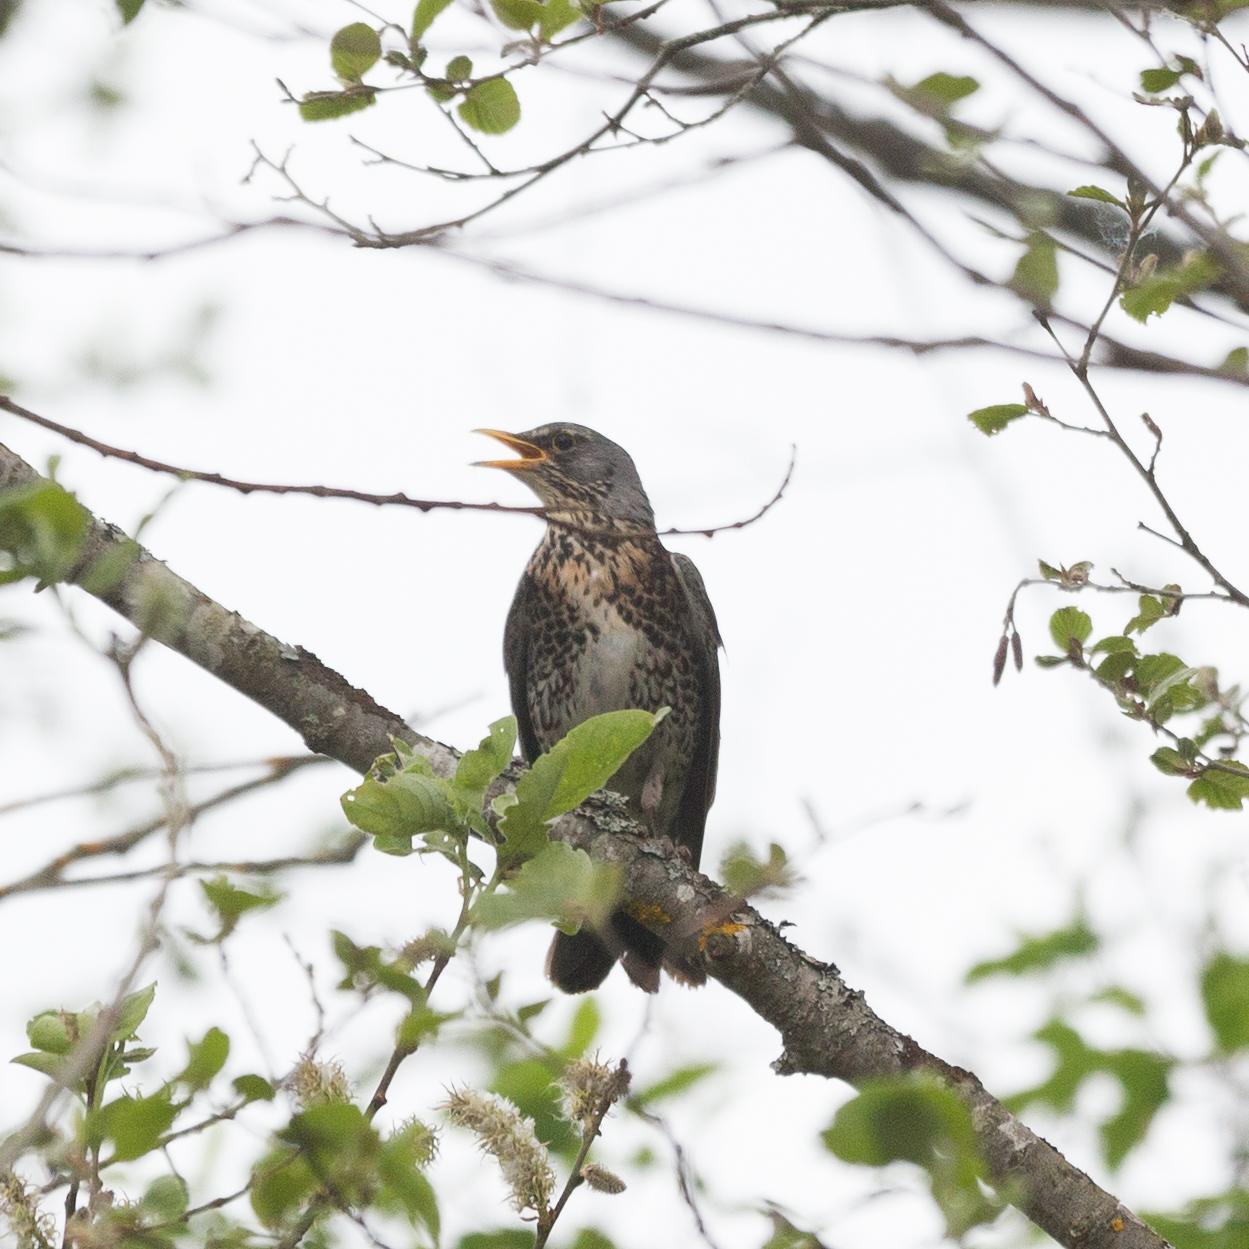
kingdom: Animalia
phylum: Chordata
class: Aves
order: Passeriformes
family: Turdidae
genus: Turdus
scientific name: Turdus pilaris
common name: Fieldfare
